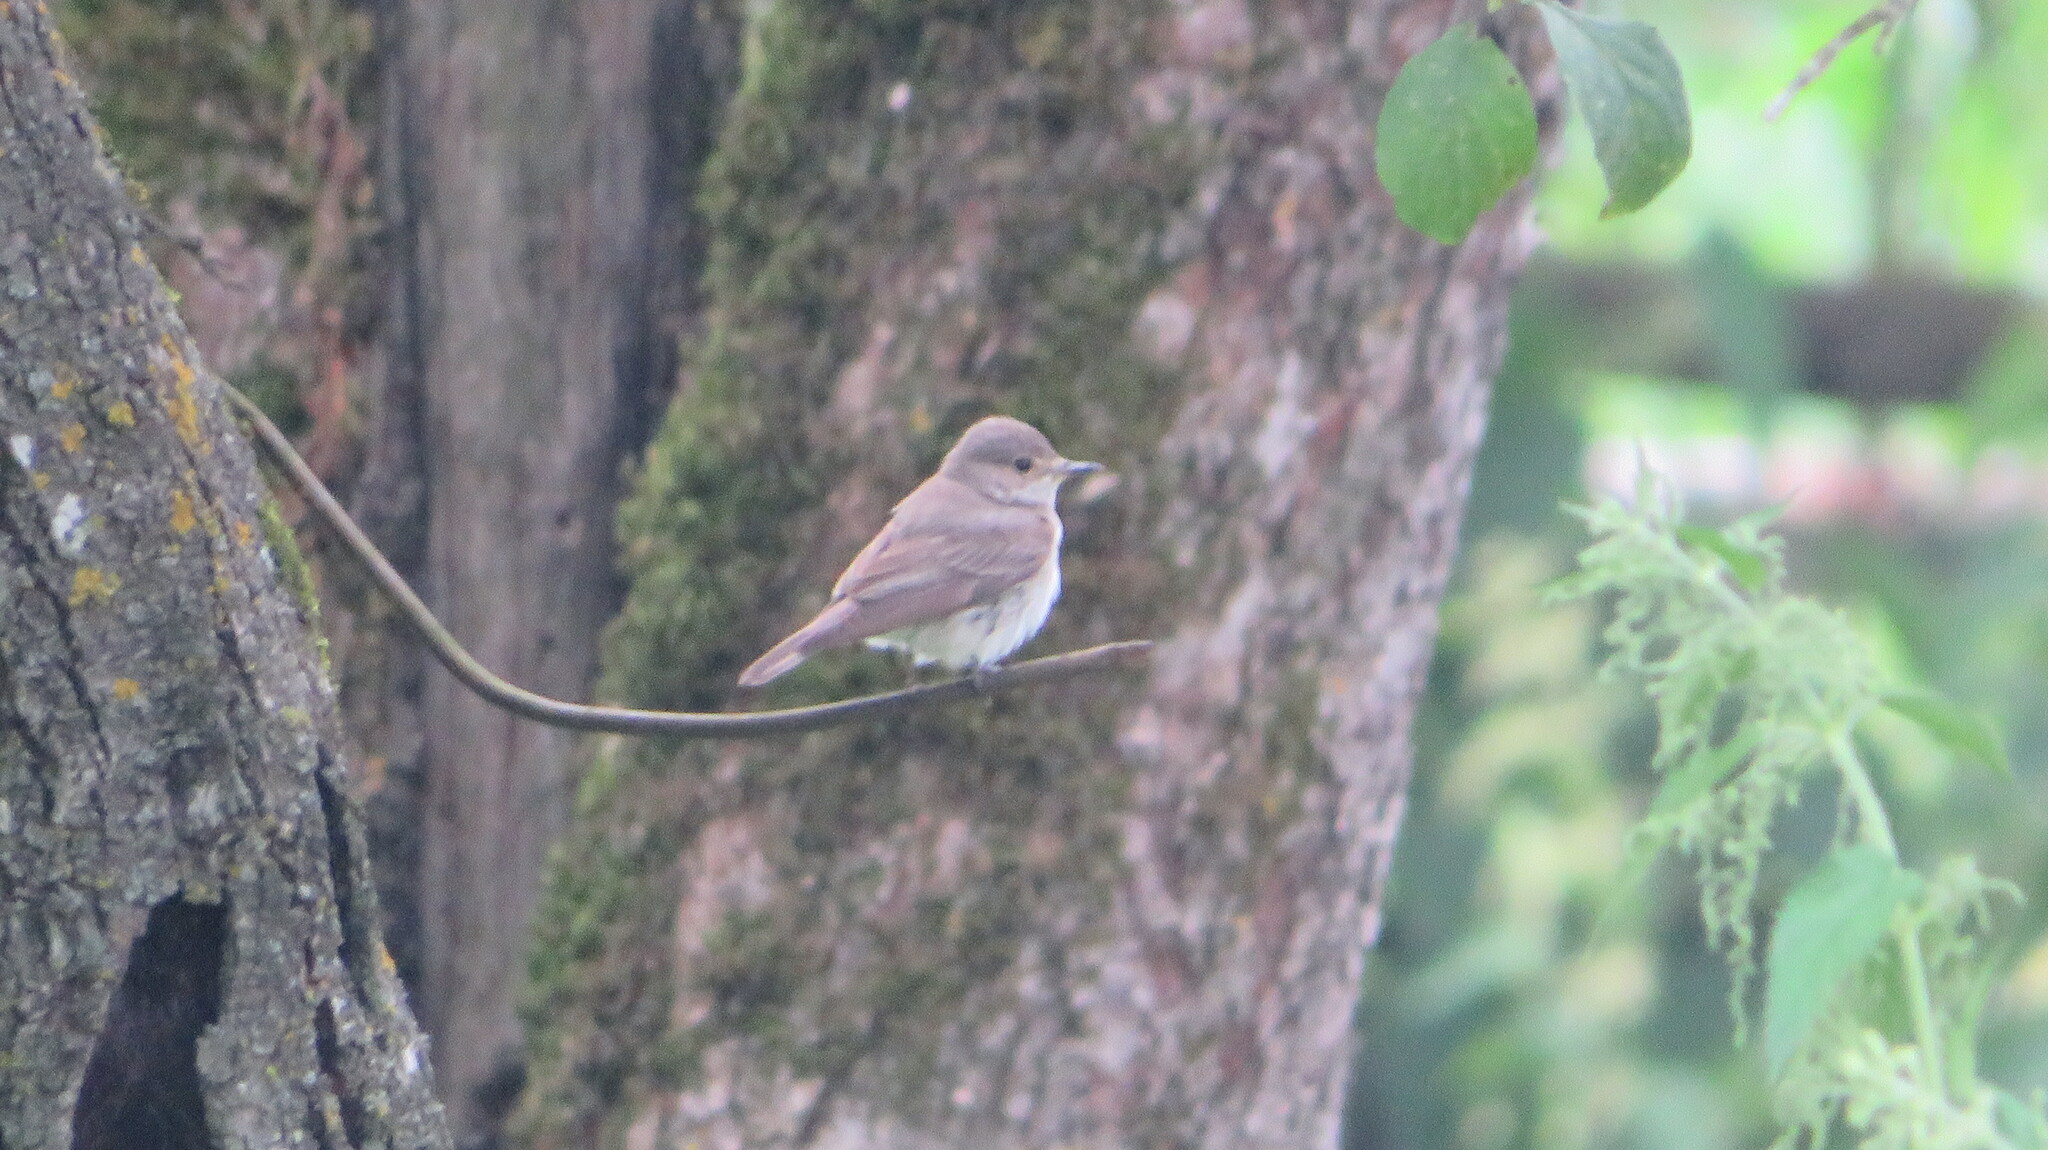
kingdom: Animalia
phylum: Chordata
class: Aves
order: Passeriformes
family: Muscicapidae
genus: Muscicapa
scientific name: Muscicapa striata
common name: Spotted flycatcher
